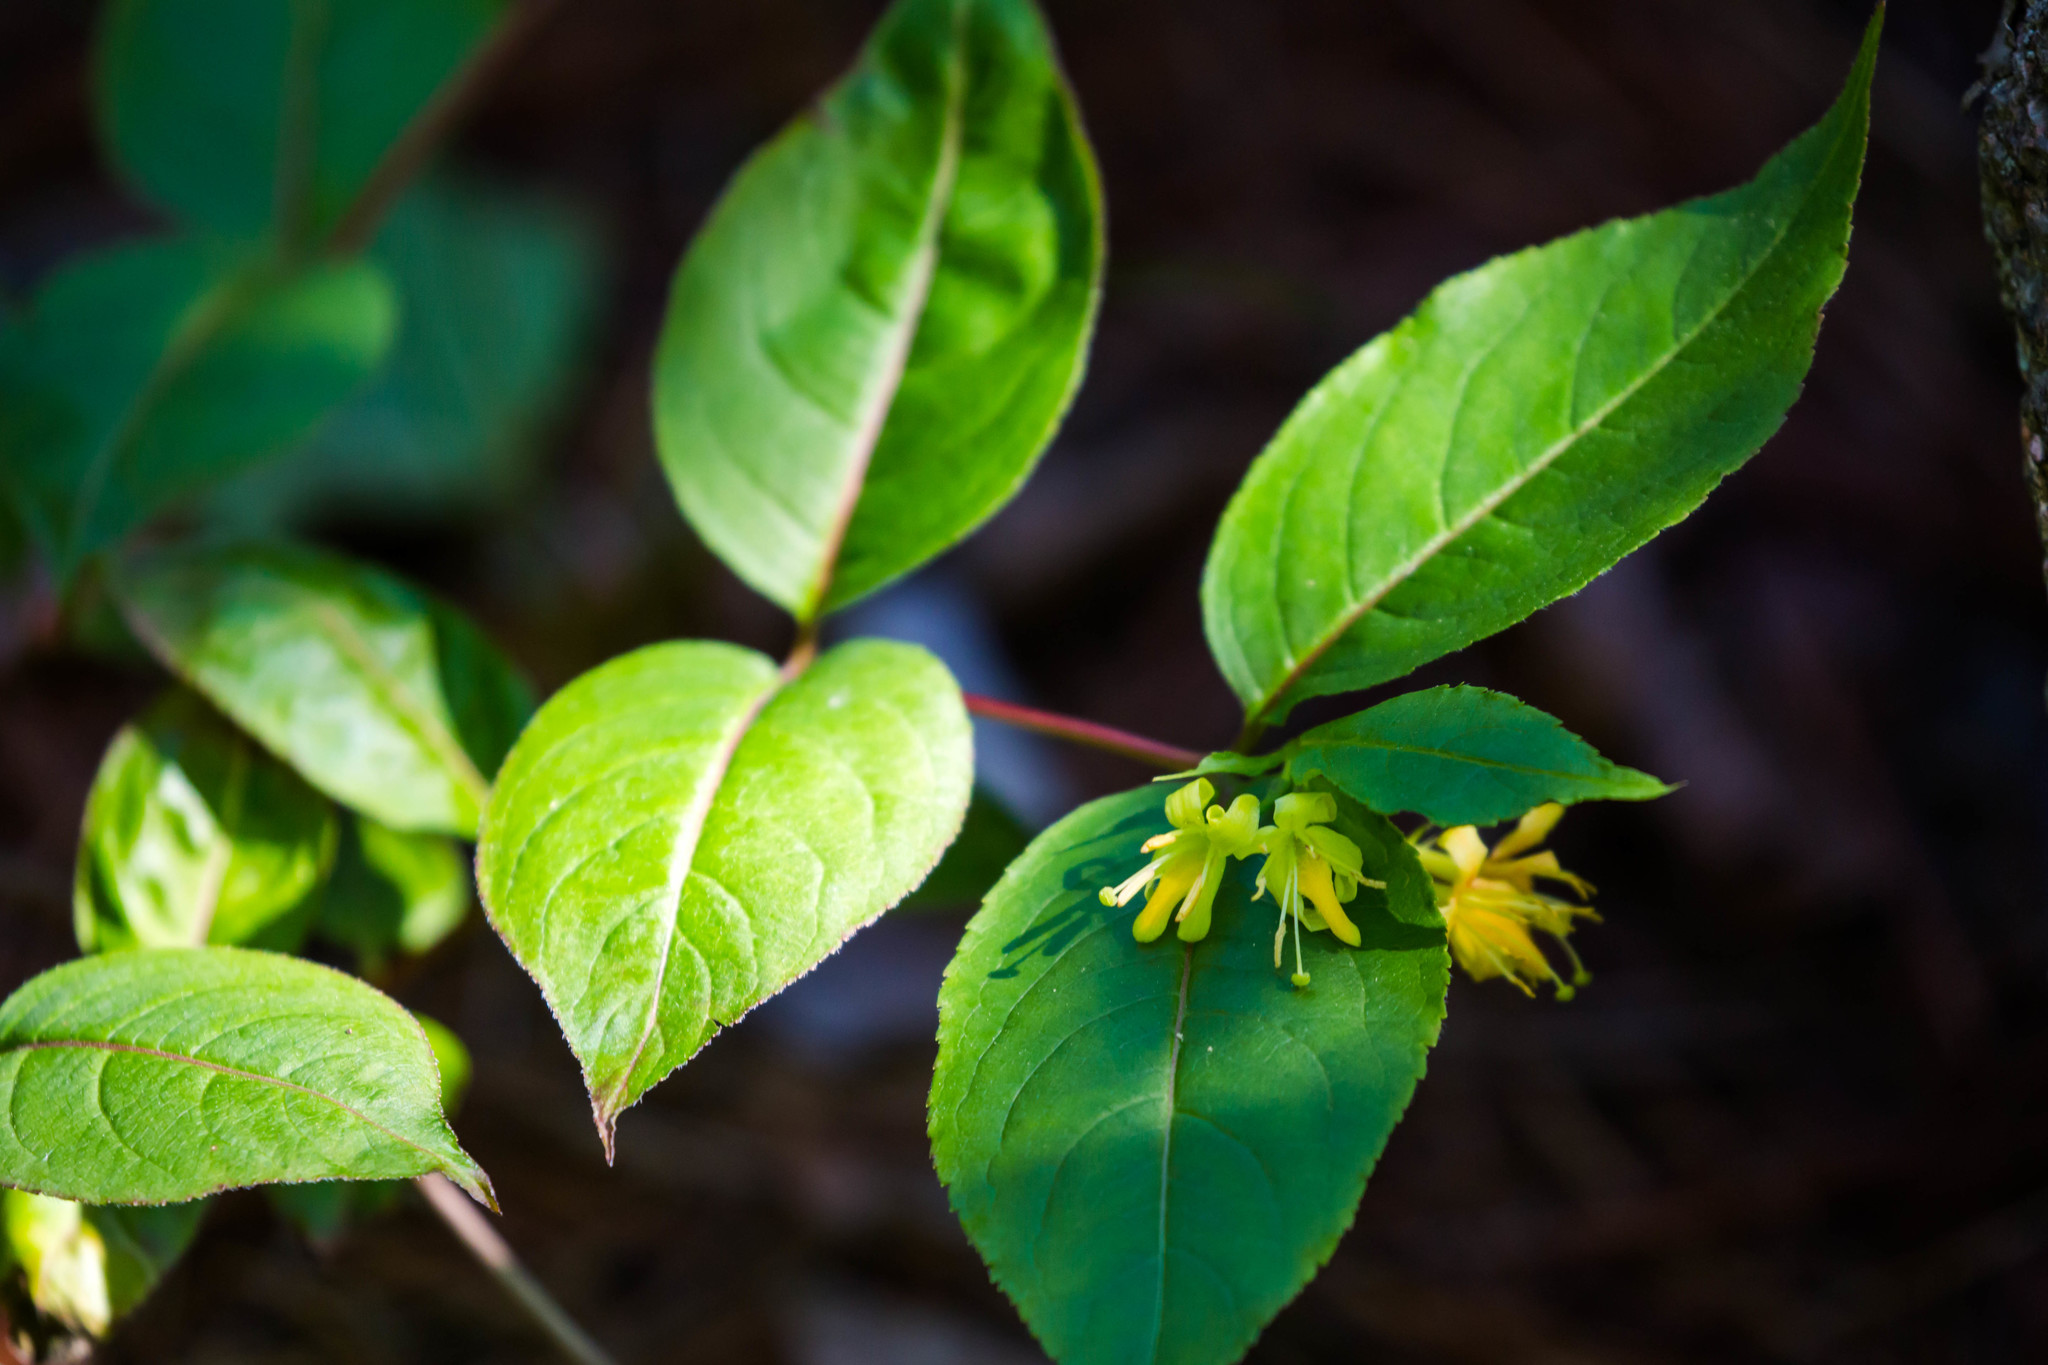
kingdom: Plantae
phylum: Tracheophyta
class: Magnoliopsida
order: Dipsacales
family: Caprifoliaceae
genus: Diervilla
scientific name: Diervilla lonicera
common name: Bush-honeysuckle
